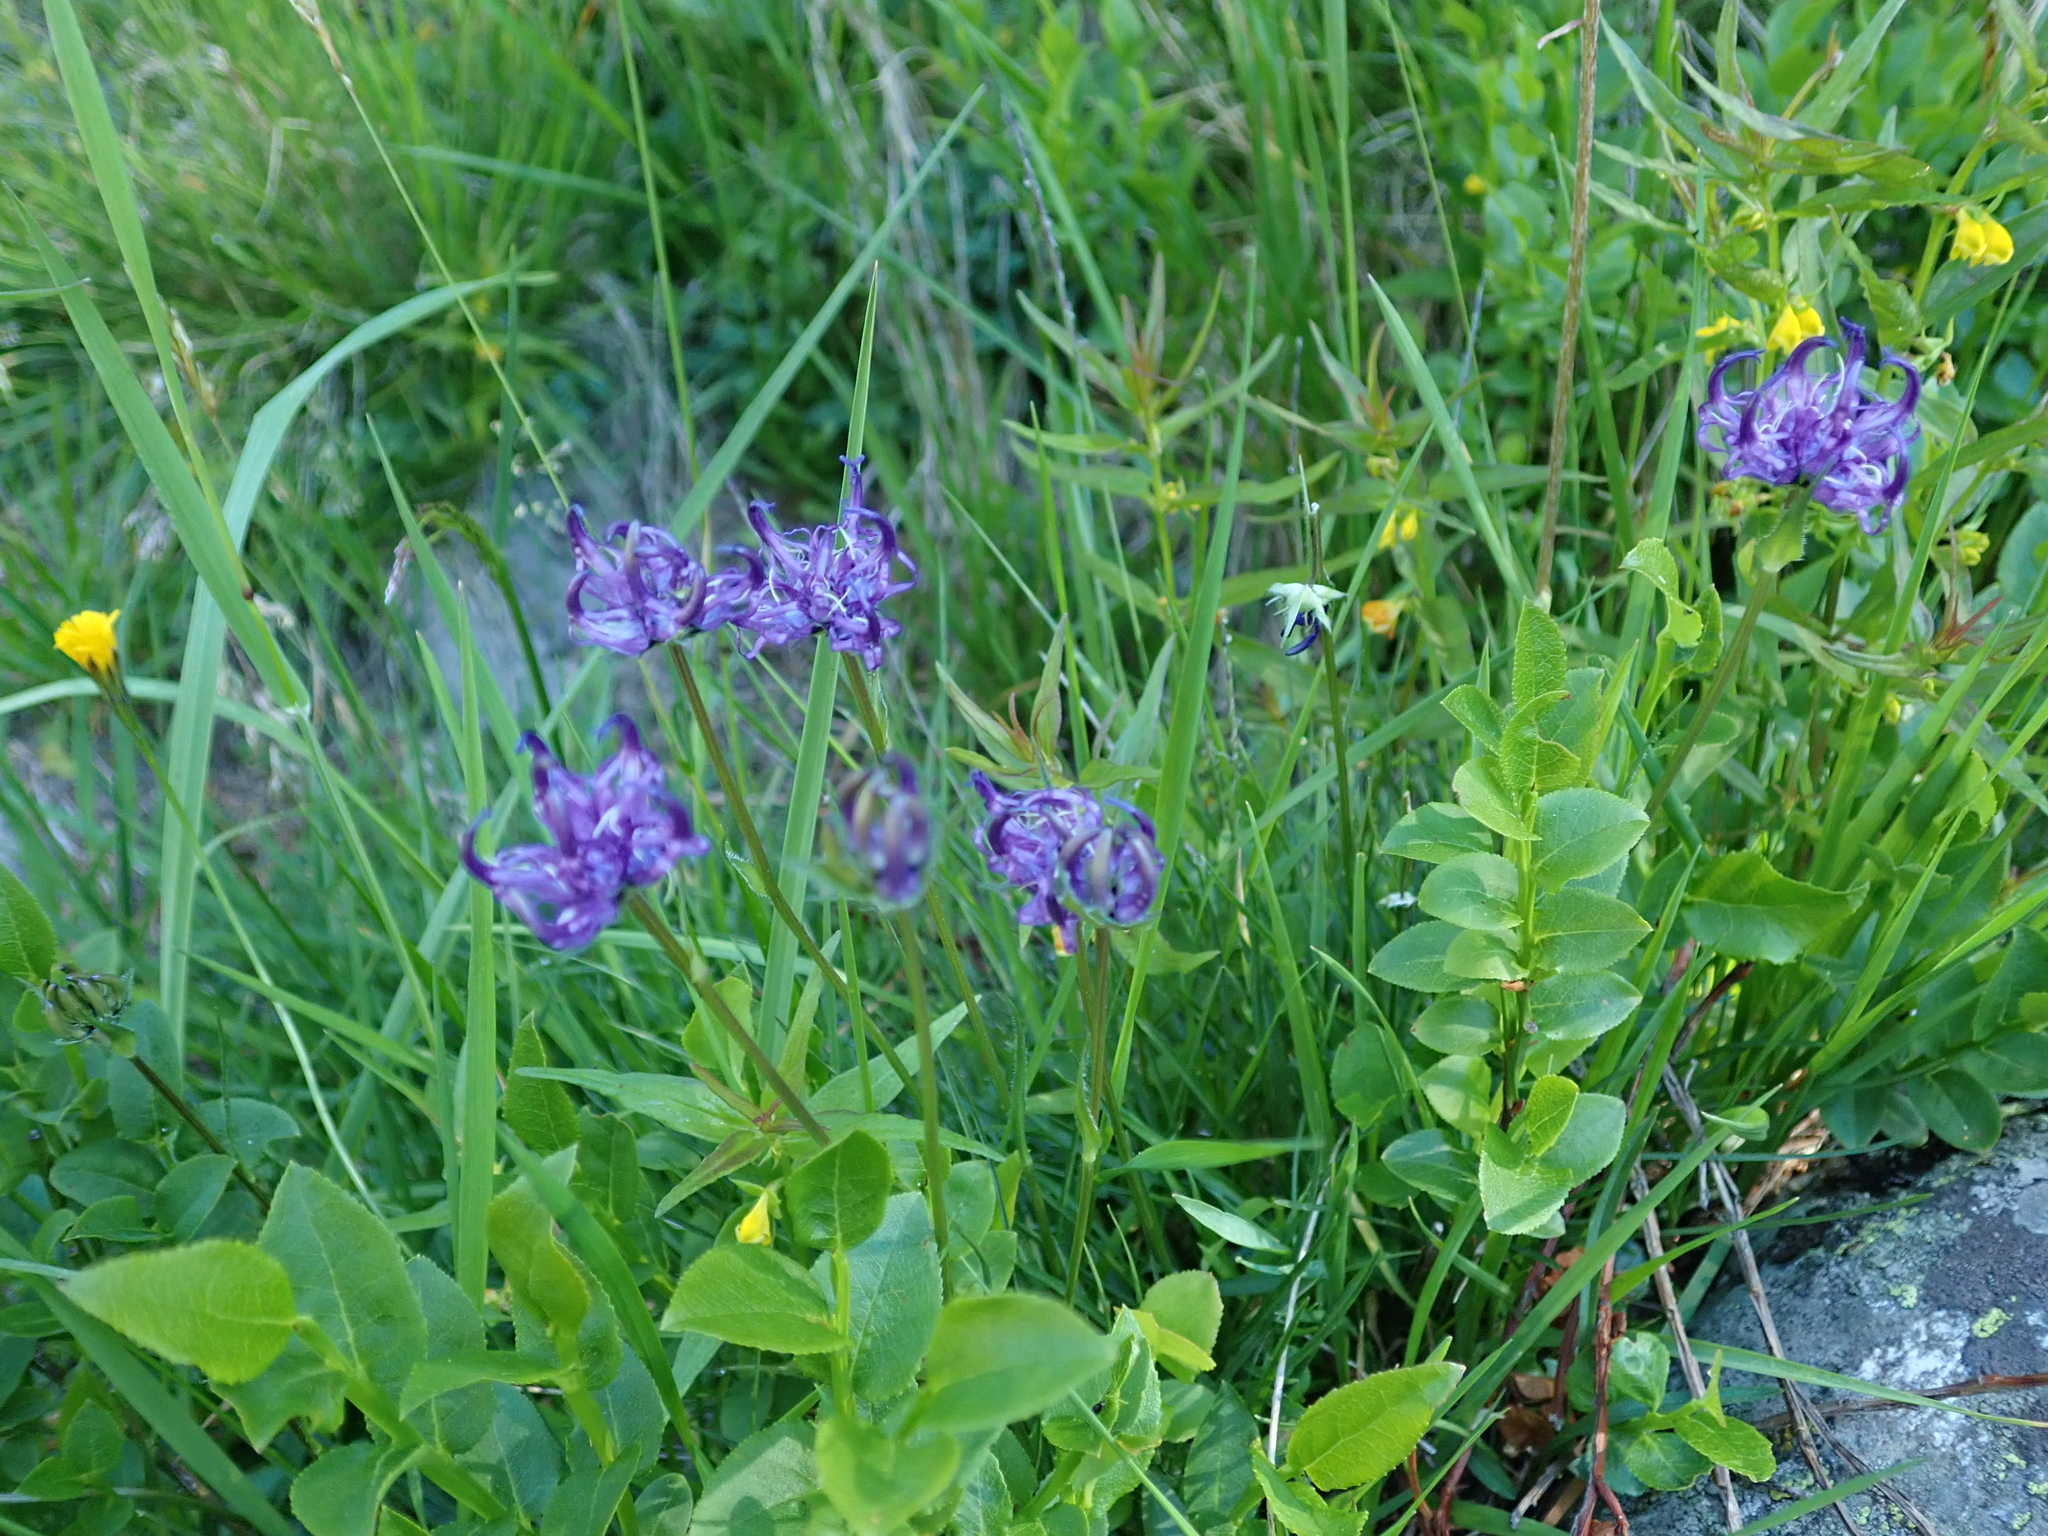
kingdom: Plantae
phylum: Tracheophyta
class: Magnoliopsida
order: Asterales
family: Campanulaceae
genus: Phyteuma
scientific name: Phyteuma hemisphaericum
